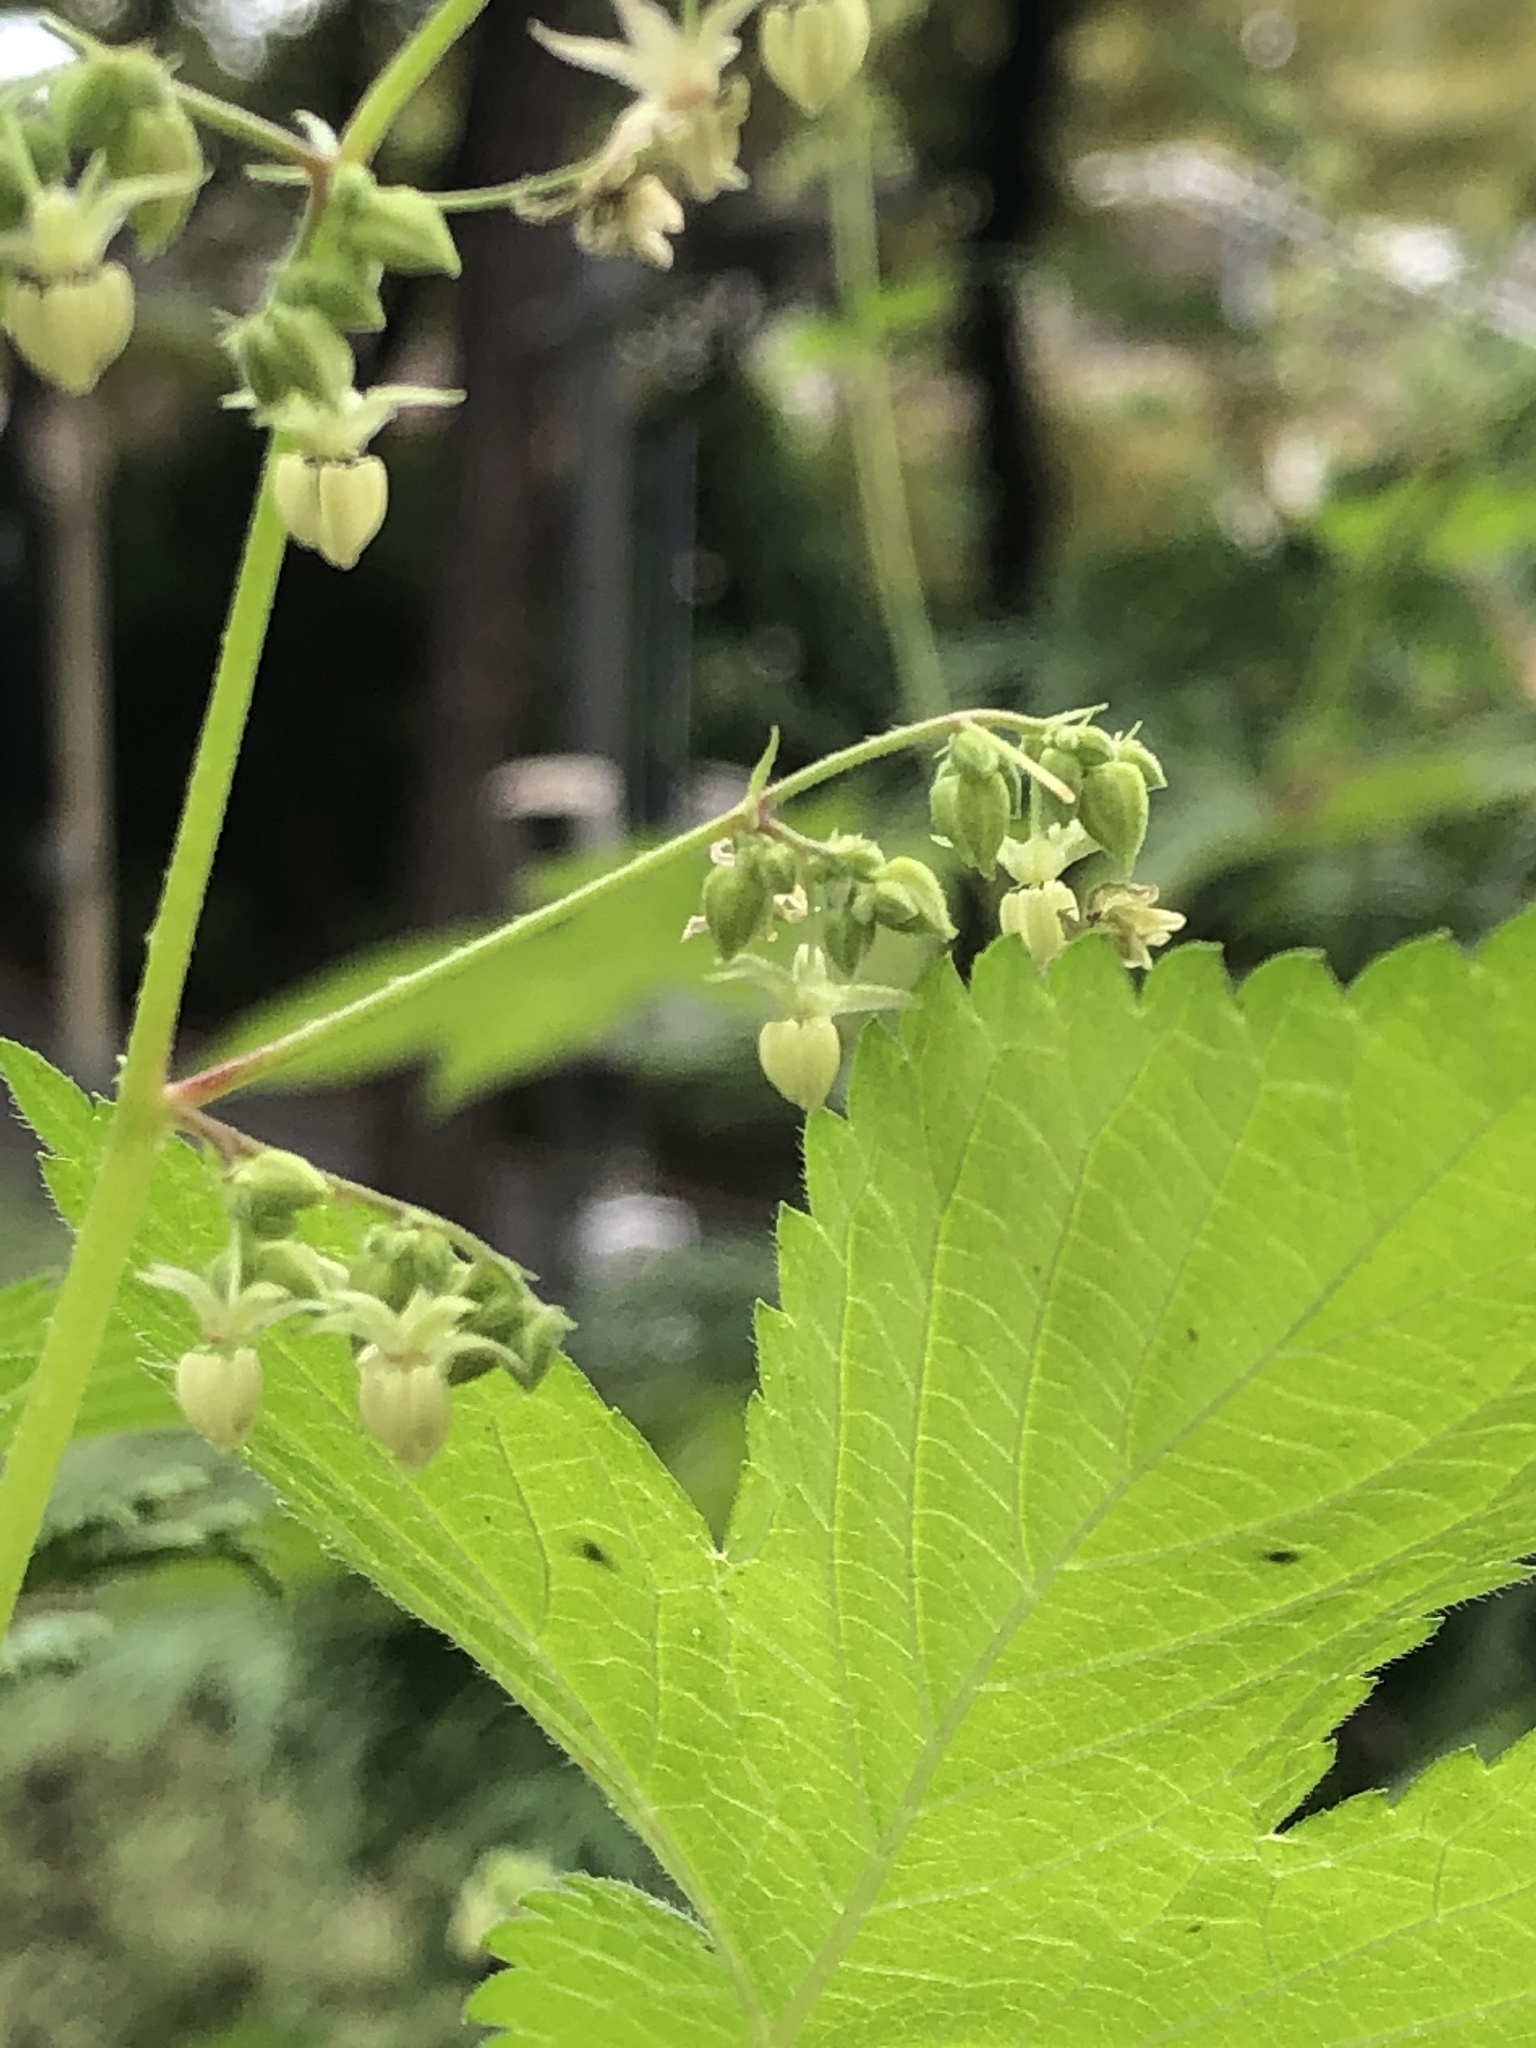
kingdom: Plantae
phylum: Tracheophyta
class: Magnoliopsida
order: Rosales
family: Cannabaceae
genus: Humulus
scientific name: Humulus scandens
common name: Japanese hop
